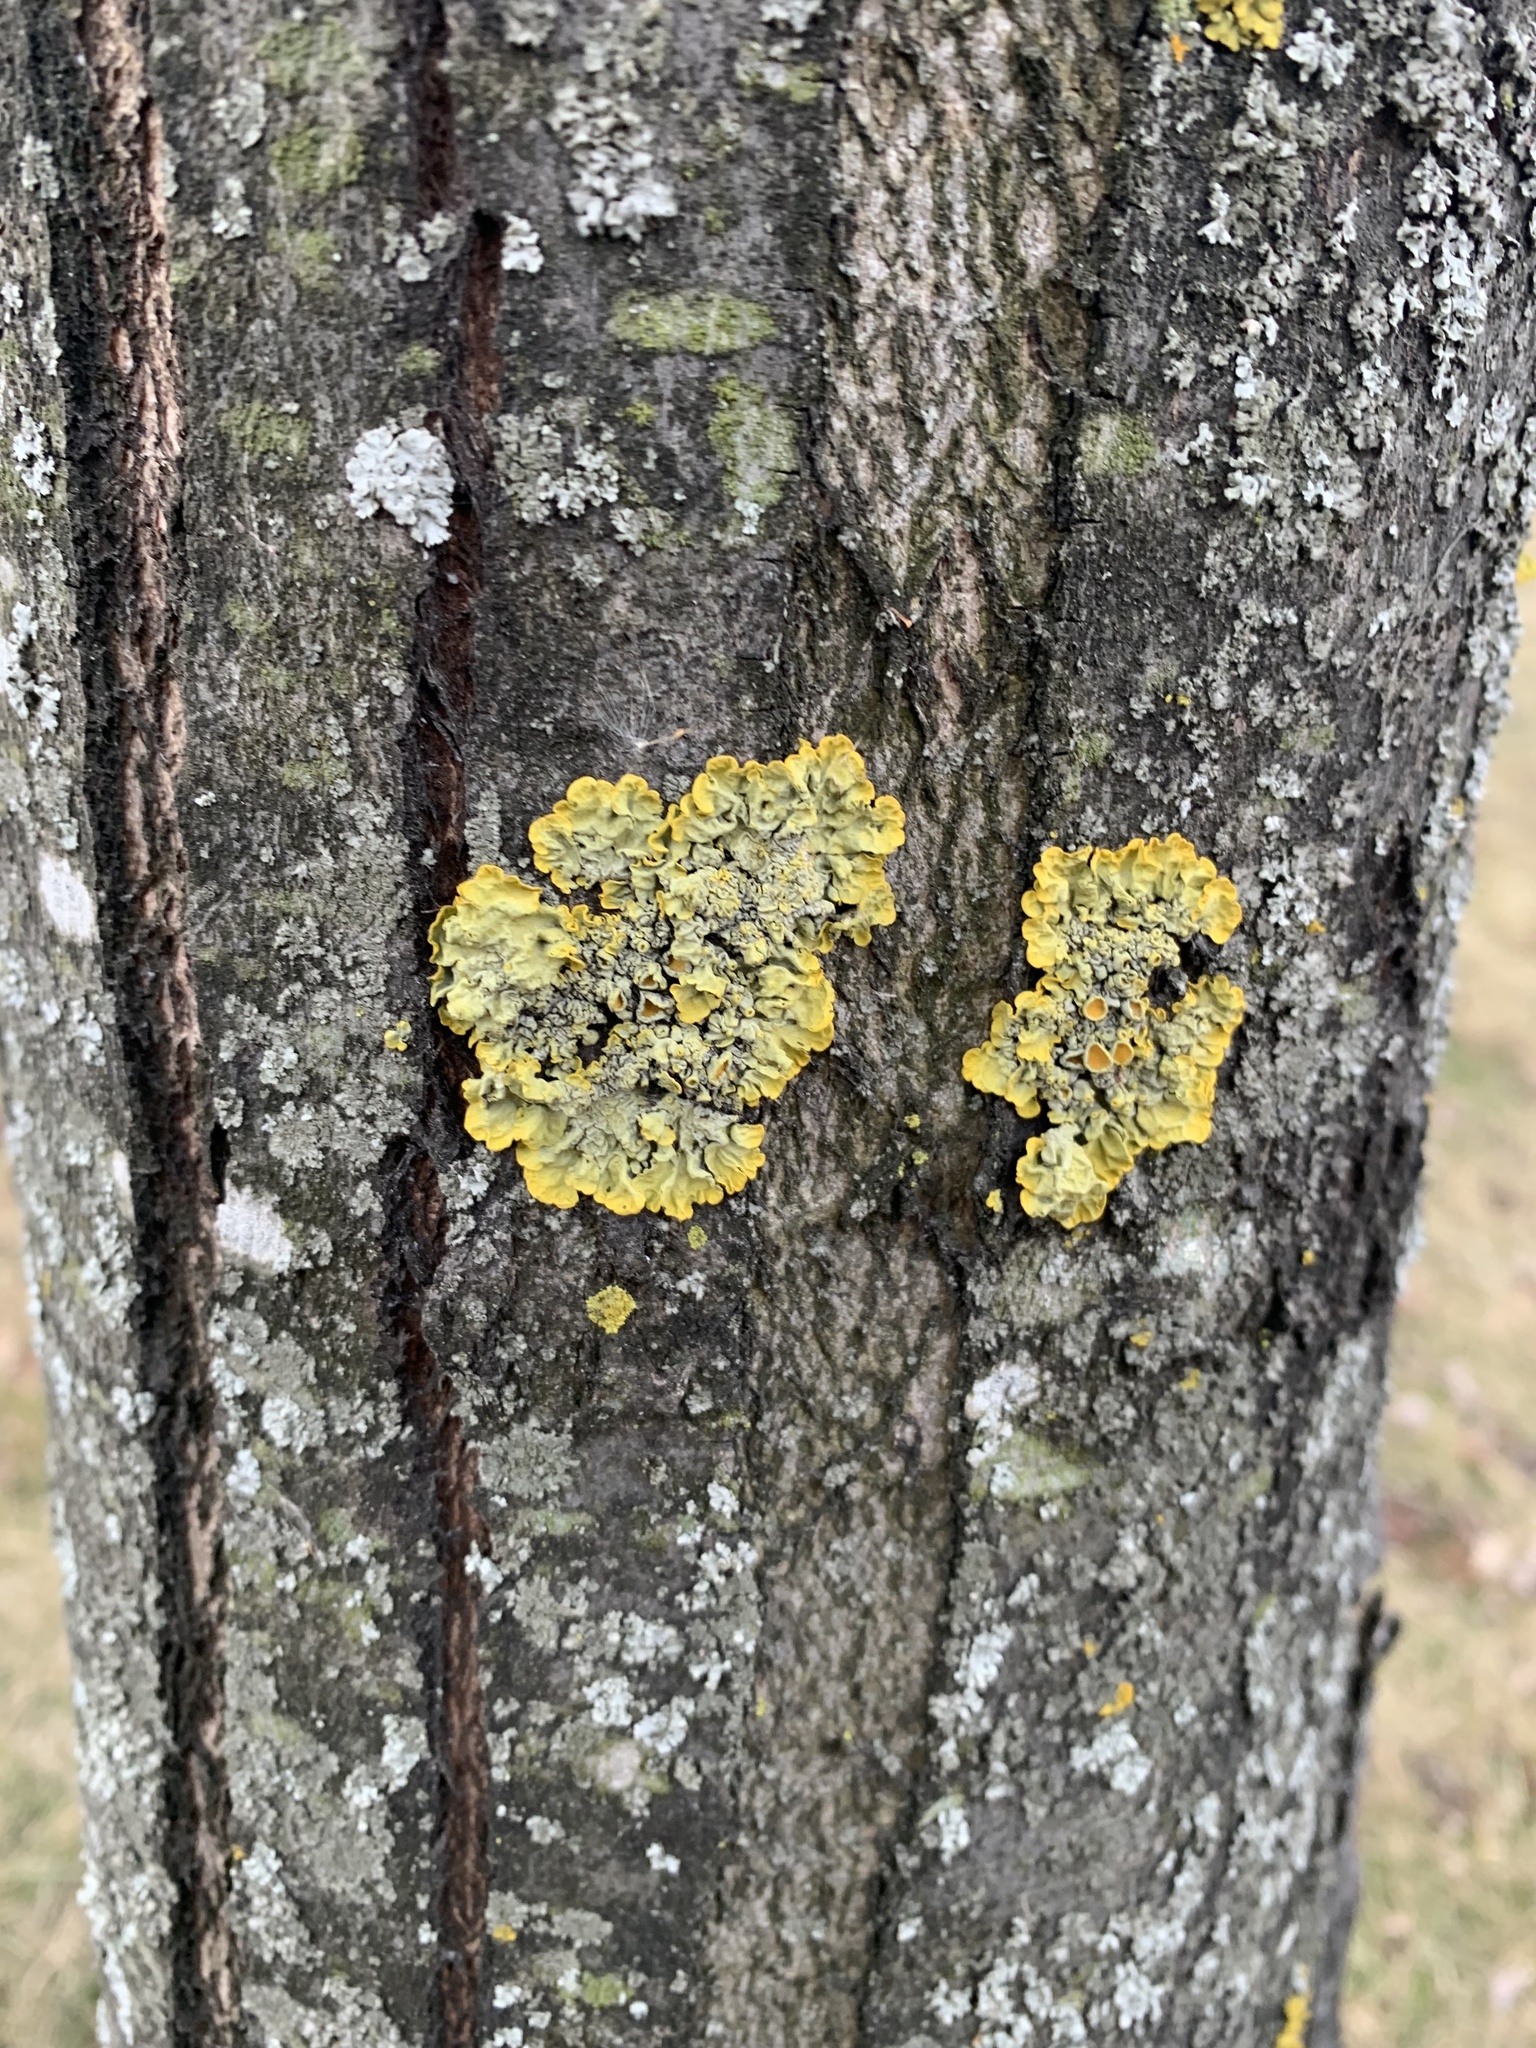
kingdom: Fungi
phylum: Ascomycota
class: Lecanoromycetes
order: Teloschistales
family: Teloschistaceae
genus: Xanthoria
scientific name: Xanthoria parietina
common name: Common orange lichen
